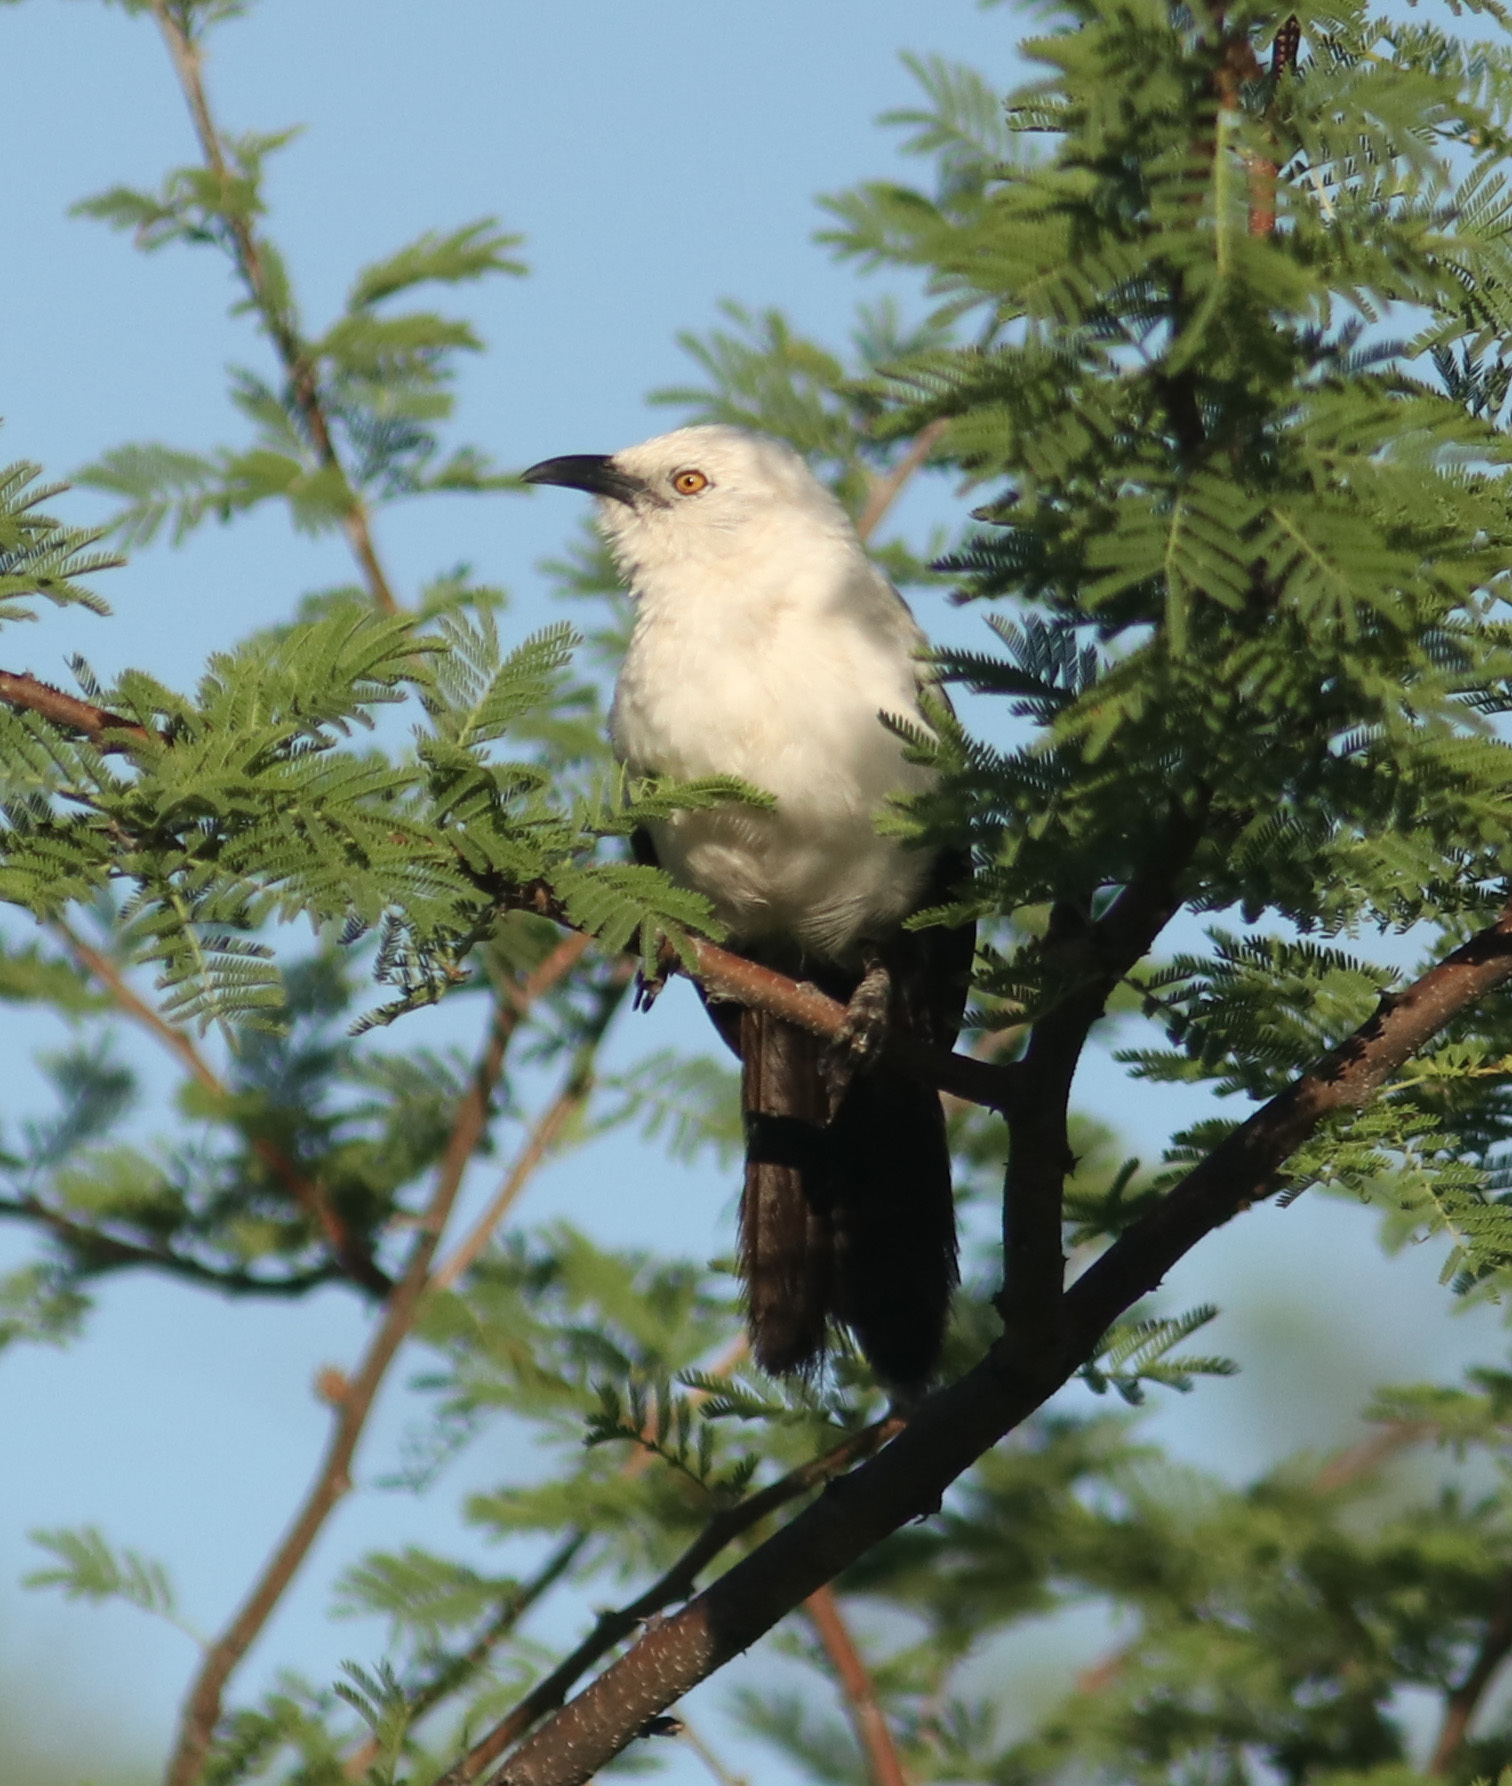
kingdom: Animalia
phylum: Chordata
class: Aves
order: Passeriformes
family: Leiothrichidae
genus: Turdoides
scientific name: Turdoides bicolor
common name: Southern pied babbler
